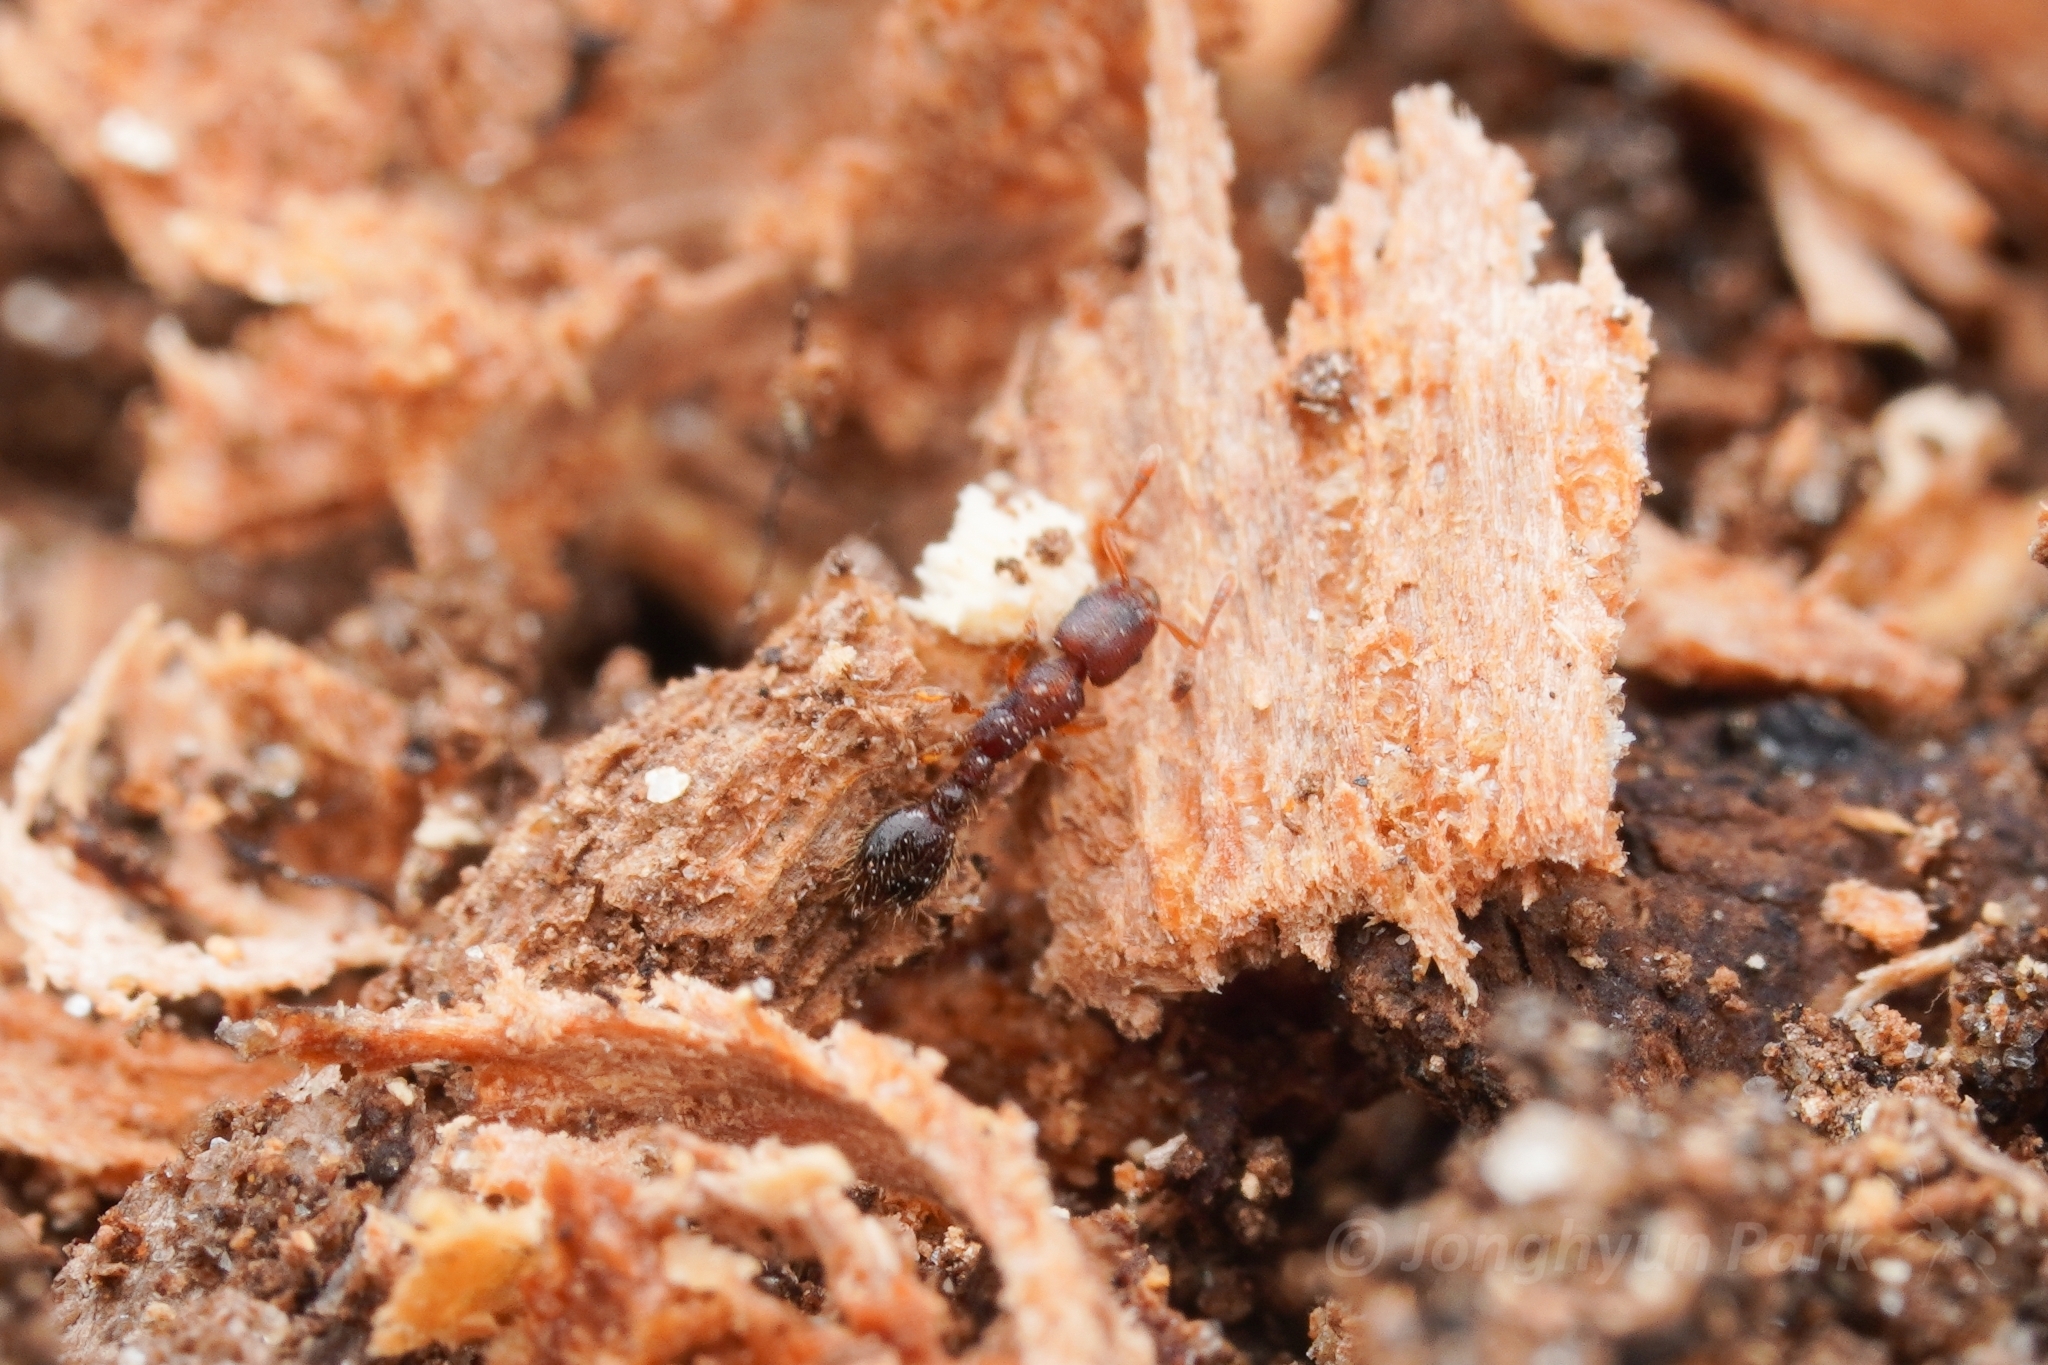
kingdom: Animalia
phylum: Arthropoda
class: Insecta
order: Hymenoptera
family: Formicidae
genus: Vollenhovia
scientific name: Vollenhovia emeryi
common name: Ant
